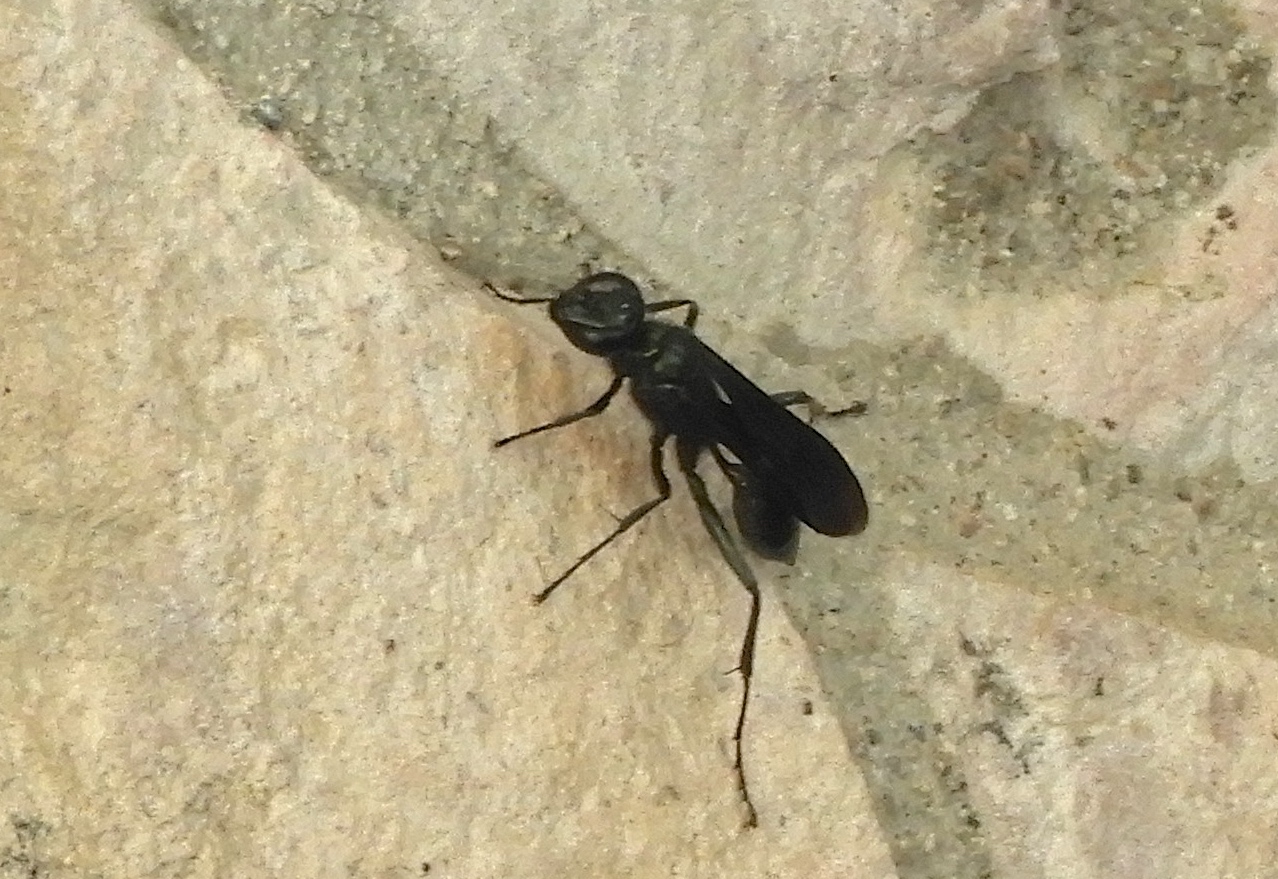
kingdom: Animalia
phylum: Arthropoda
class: Insecta
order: Hymenoptera
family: Sphecidae
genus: Chalybion
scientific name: Chalybion
